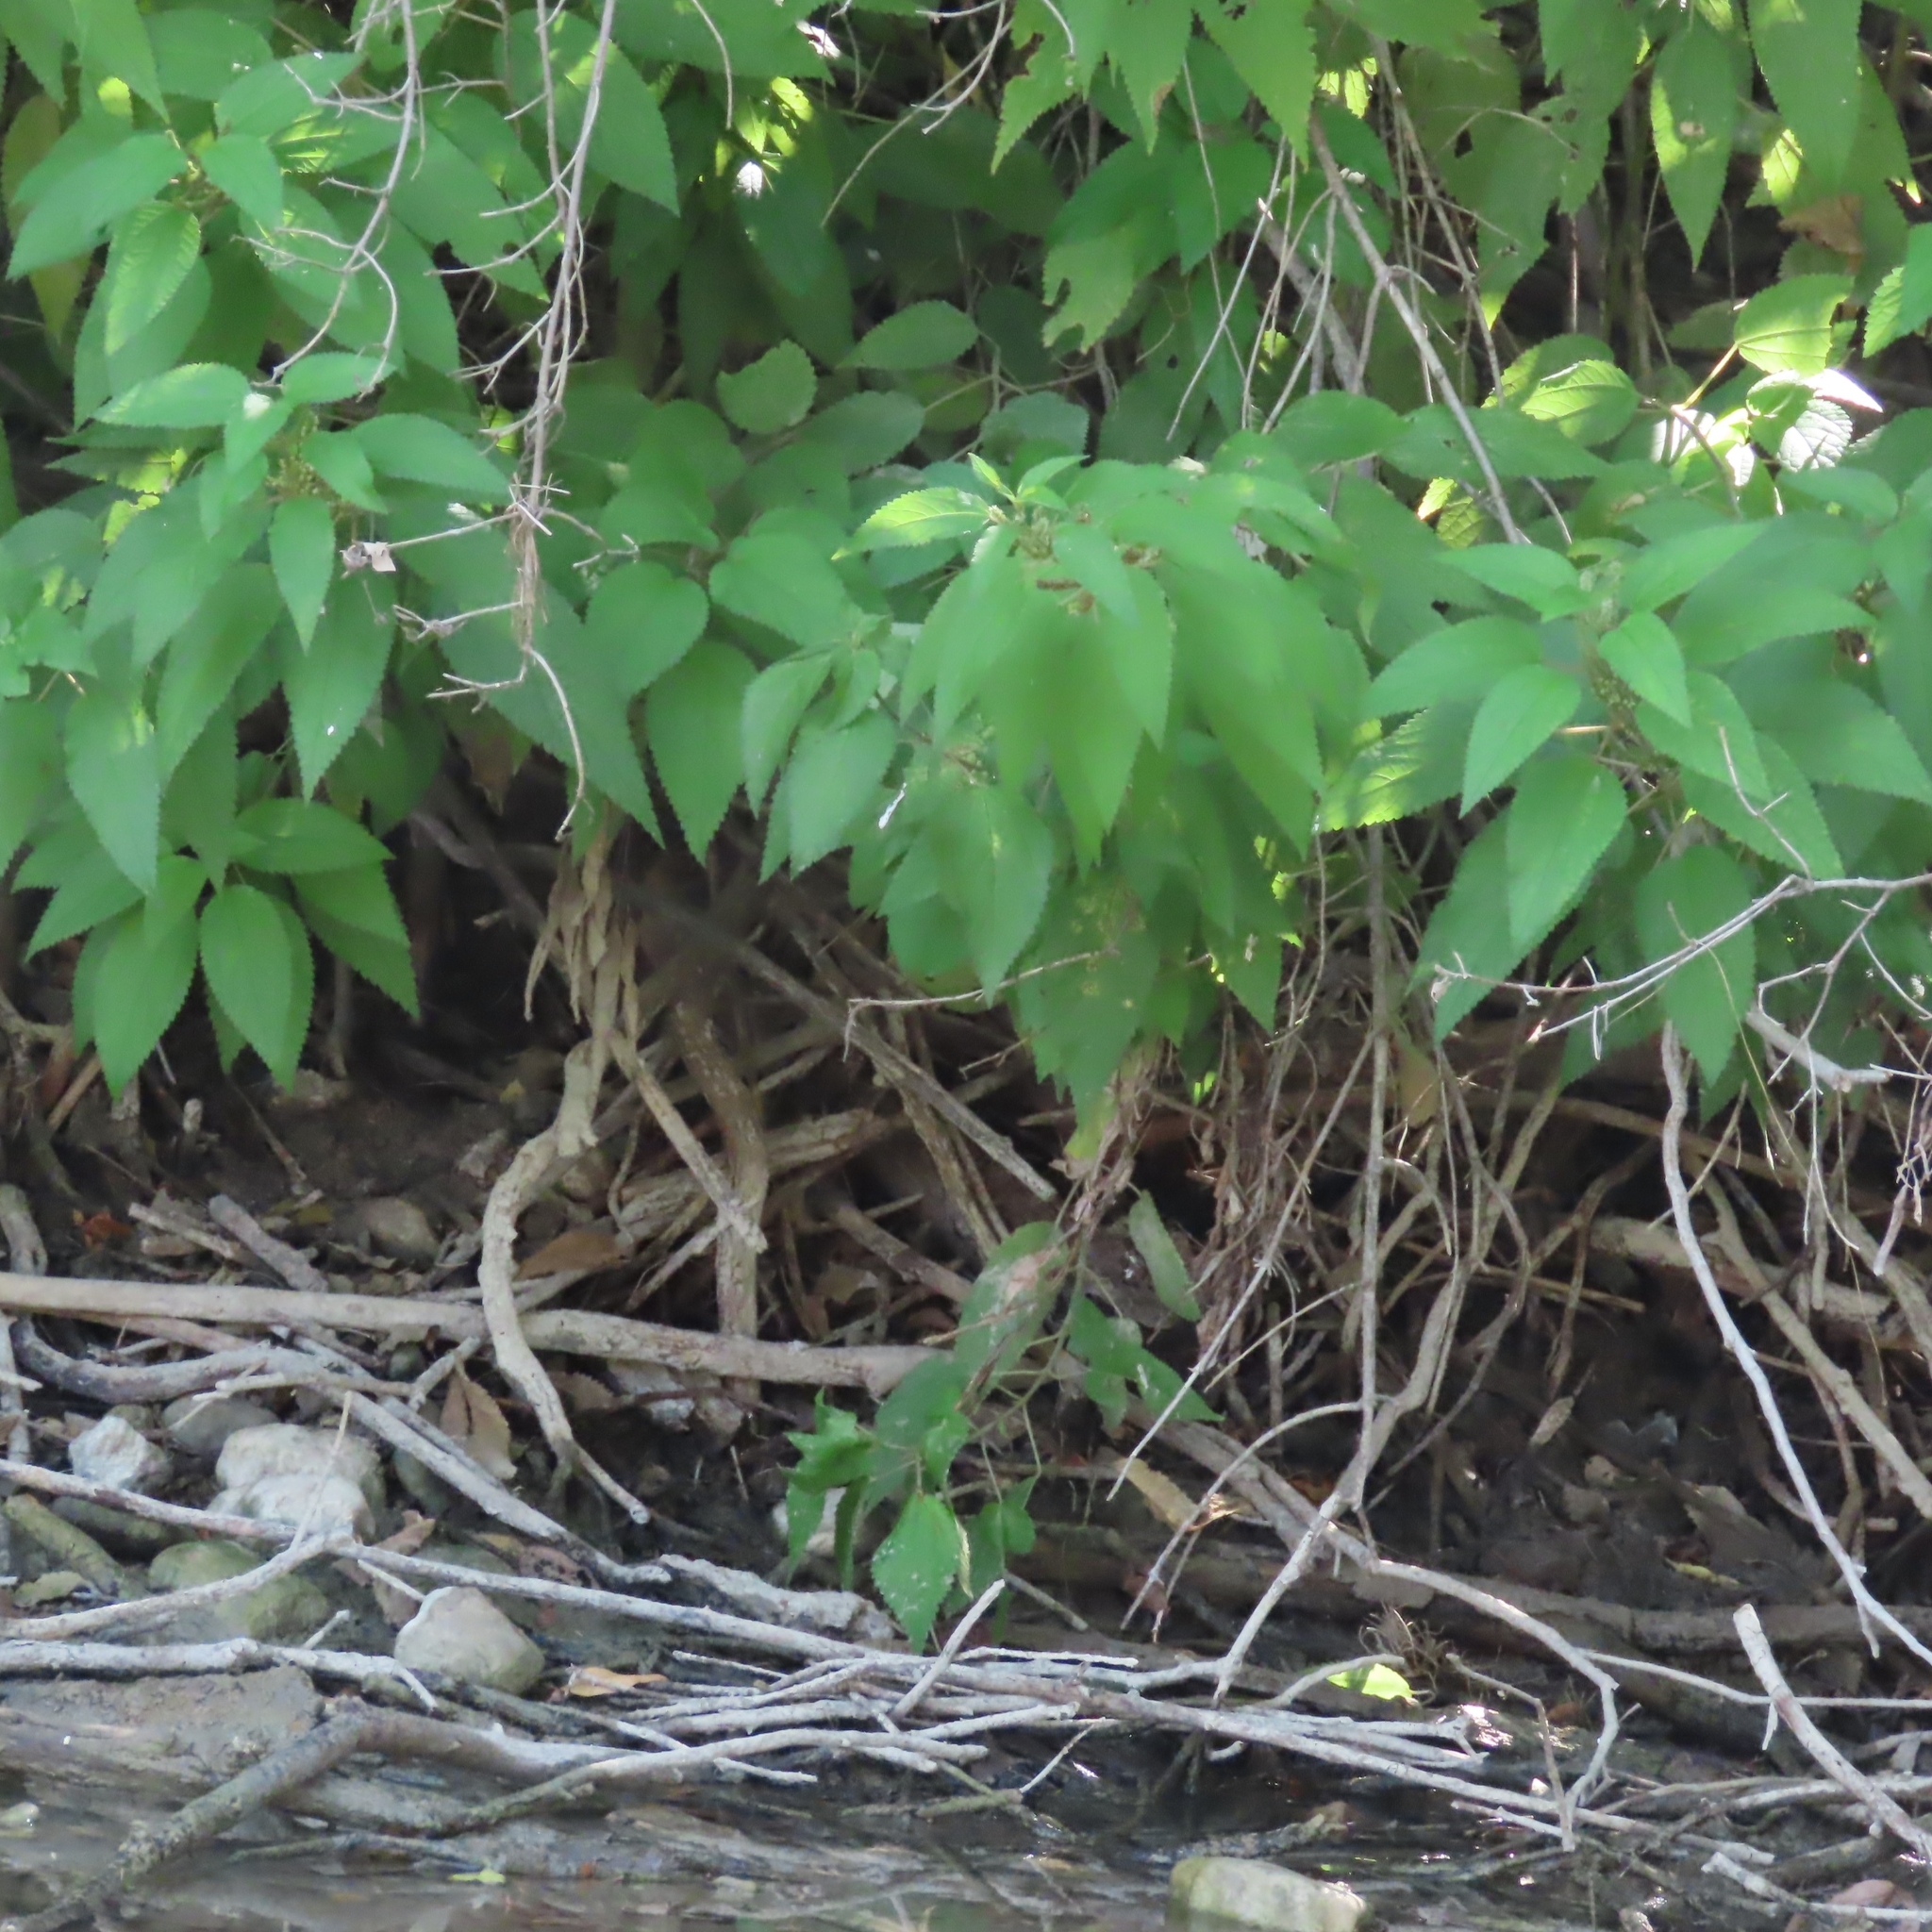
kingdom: Plantae
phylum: Tracheophyta
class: Magnoliopsida
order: Rosales
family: Urticaceae
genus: Boehmeria
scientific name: Boehmeria cylindrica
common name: Bog-hemp
